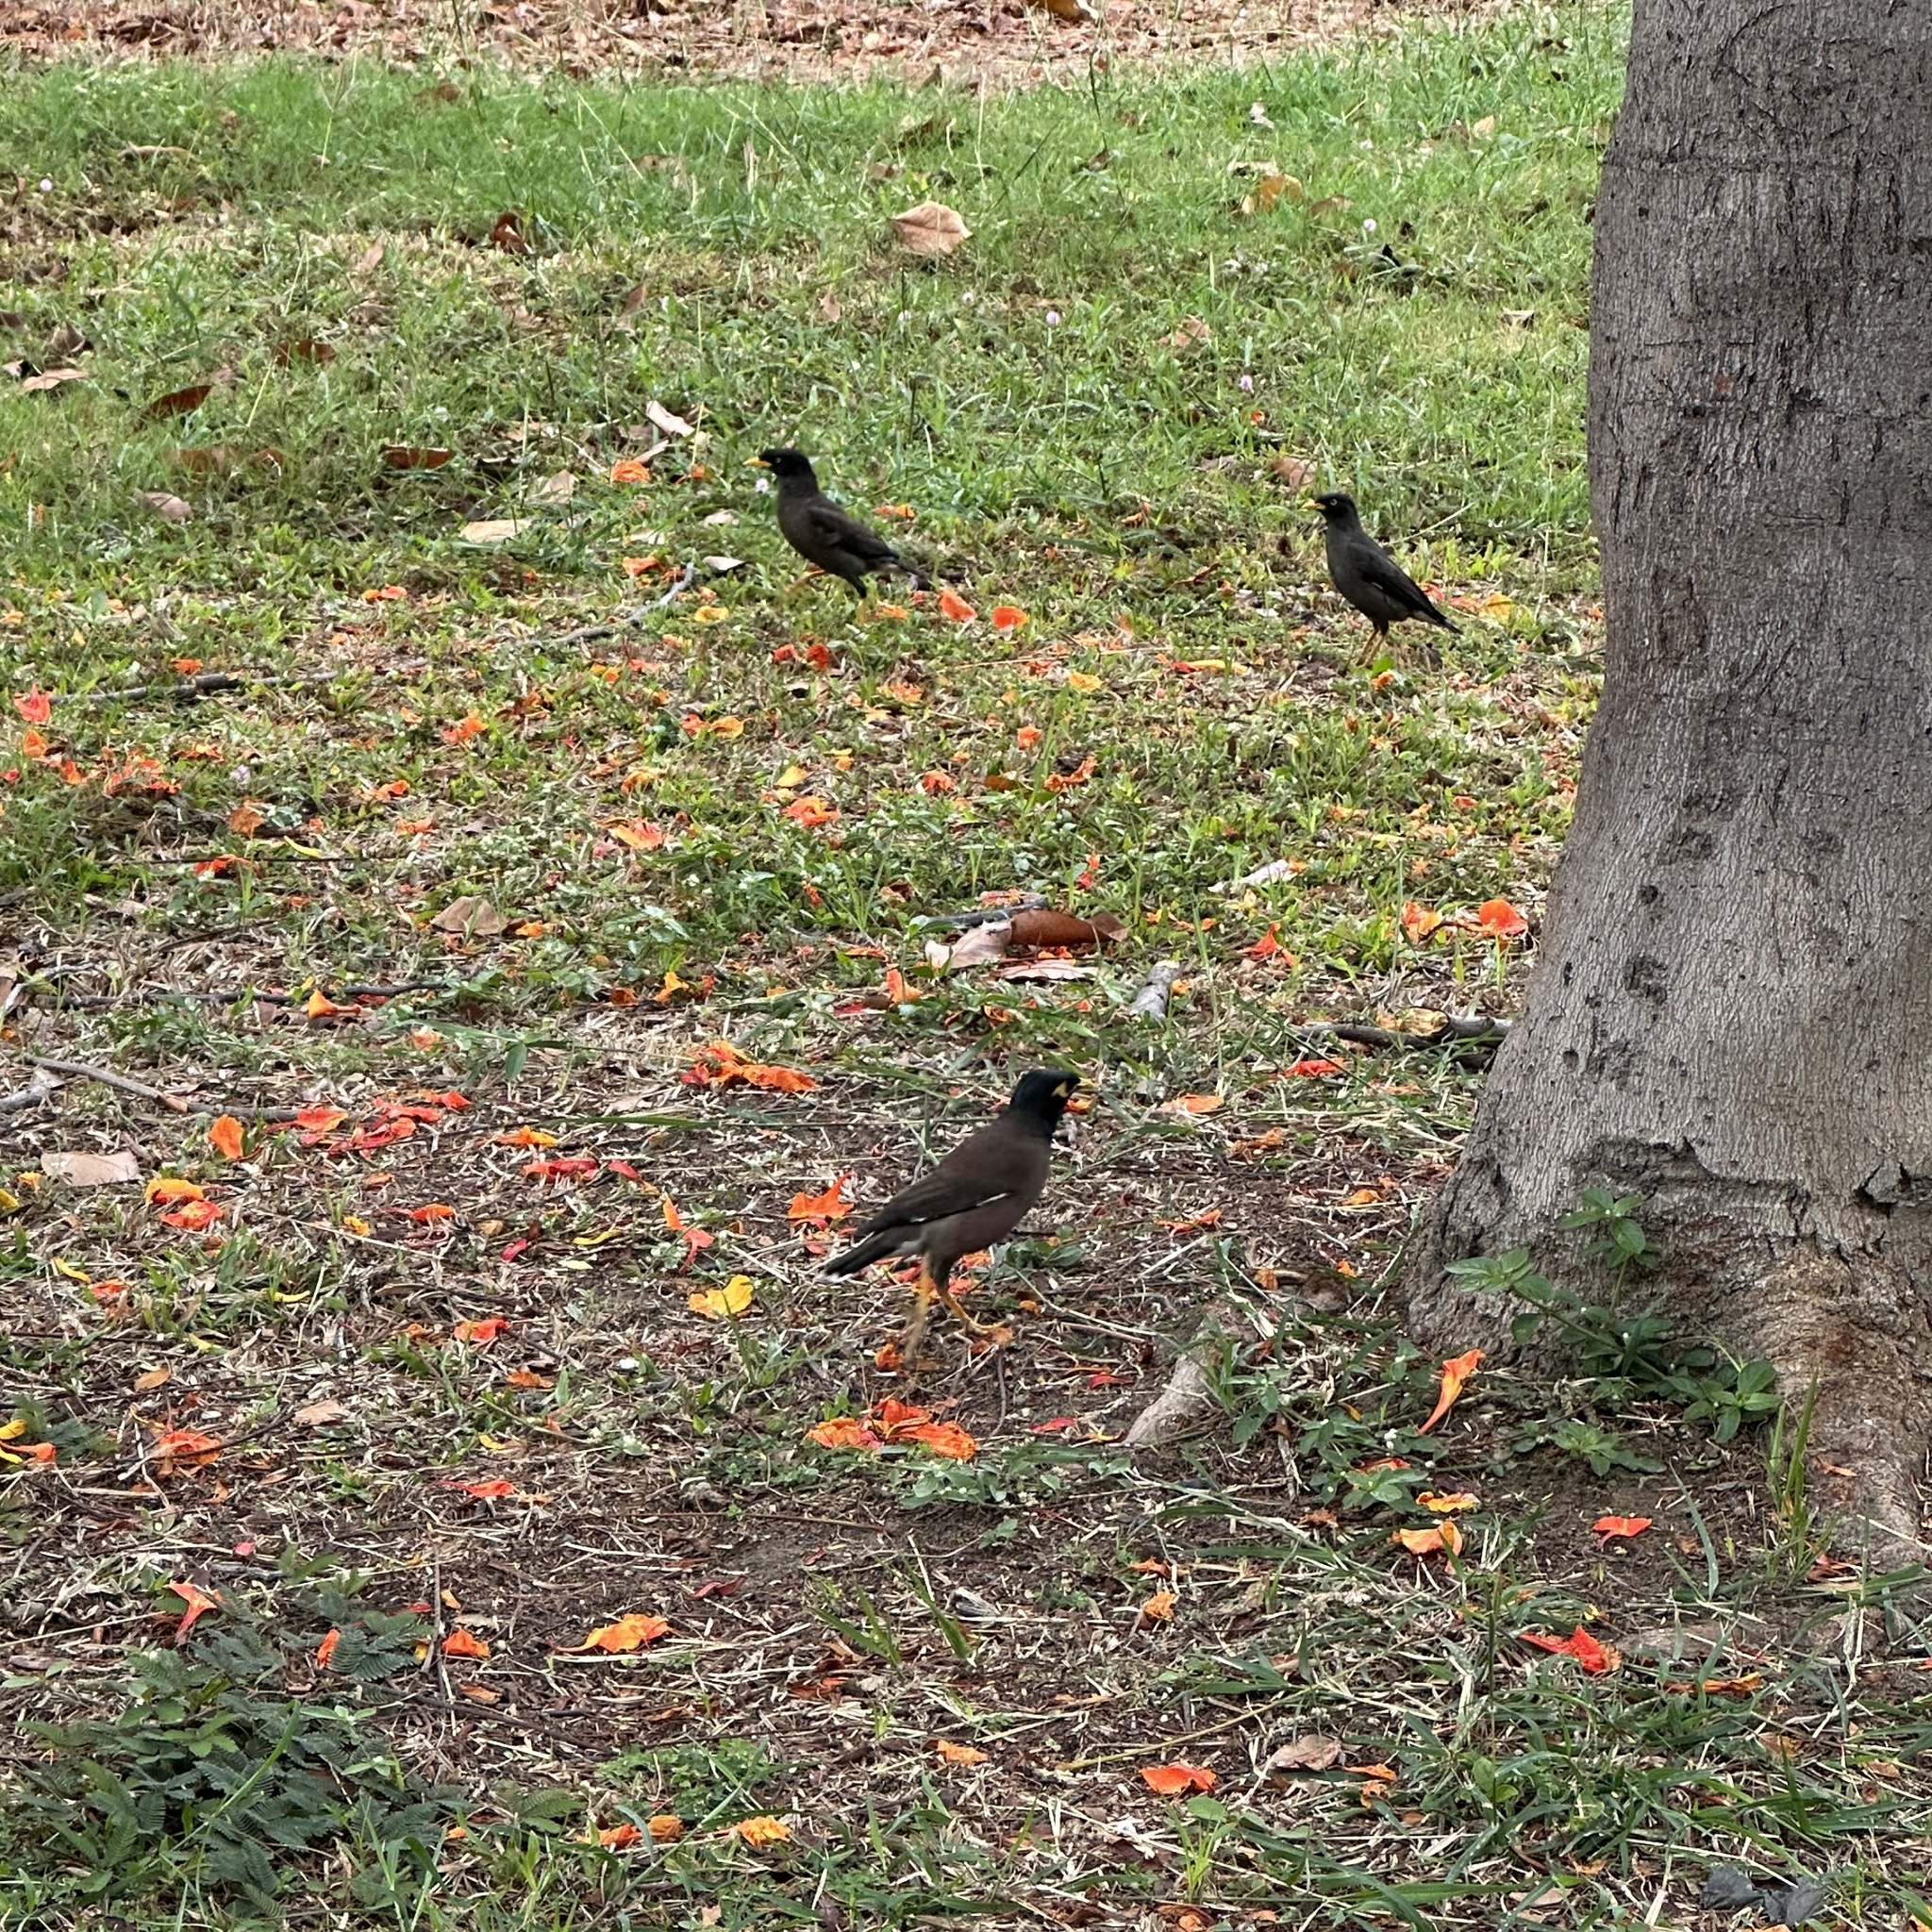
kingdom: Animalia
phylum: Chordata
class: Aves
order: Passeriformes
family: Sturnidae
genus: Acridotheres
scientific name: Acridotheres tristis
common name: Common myna
